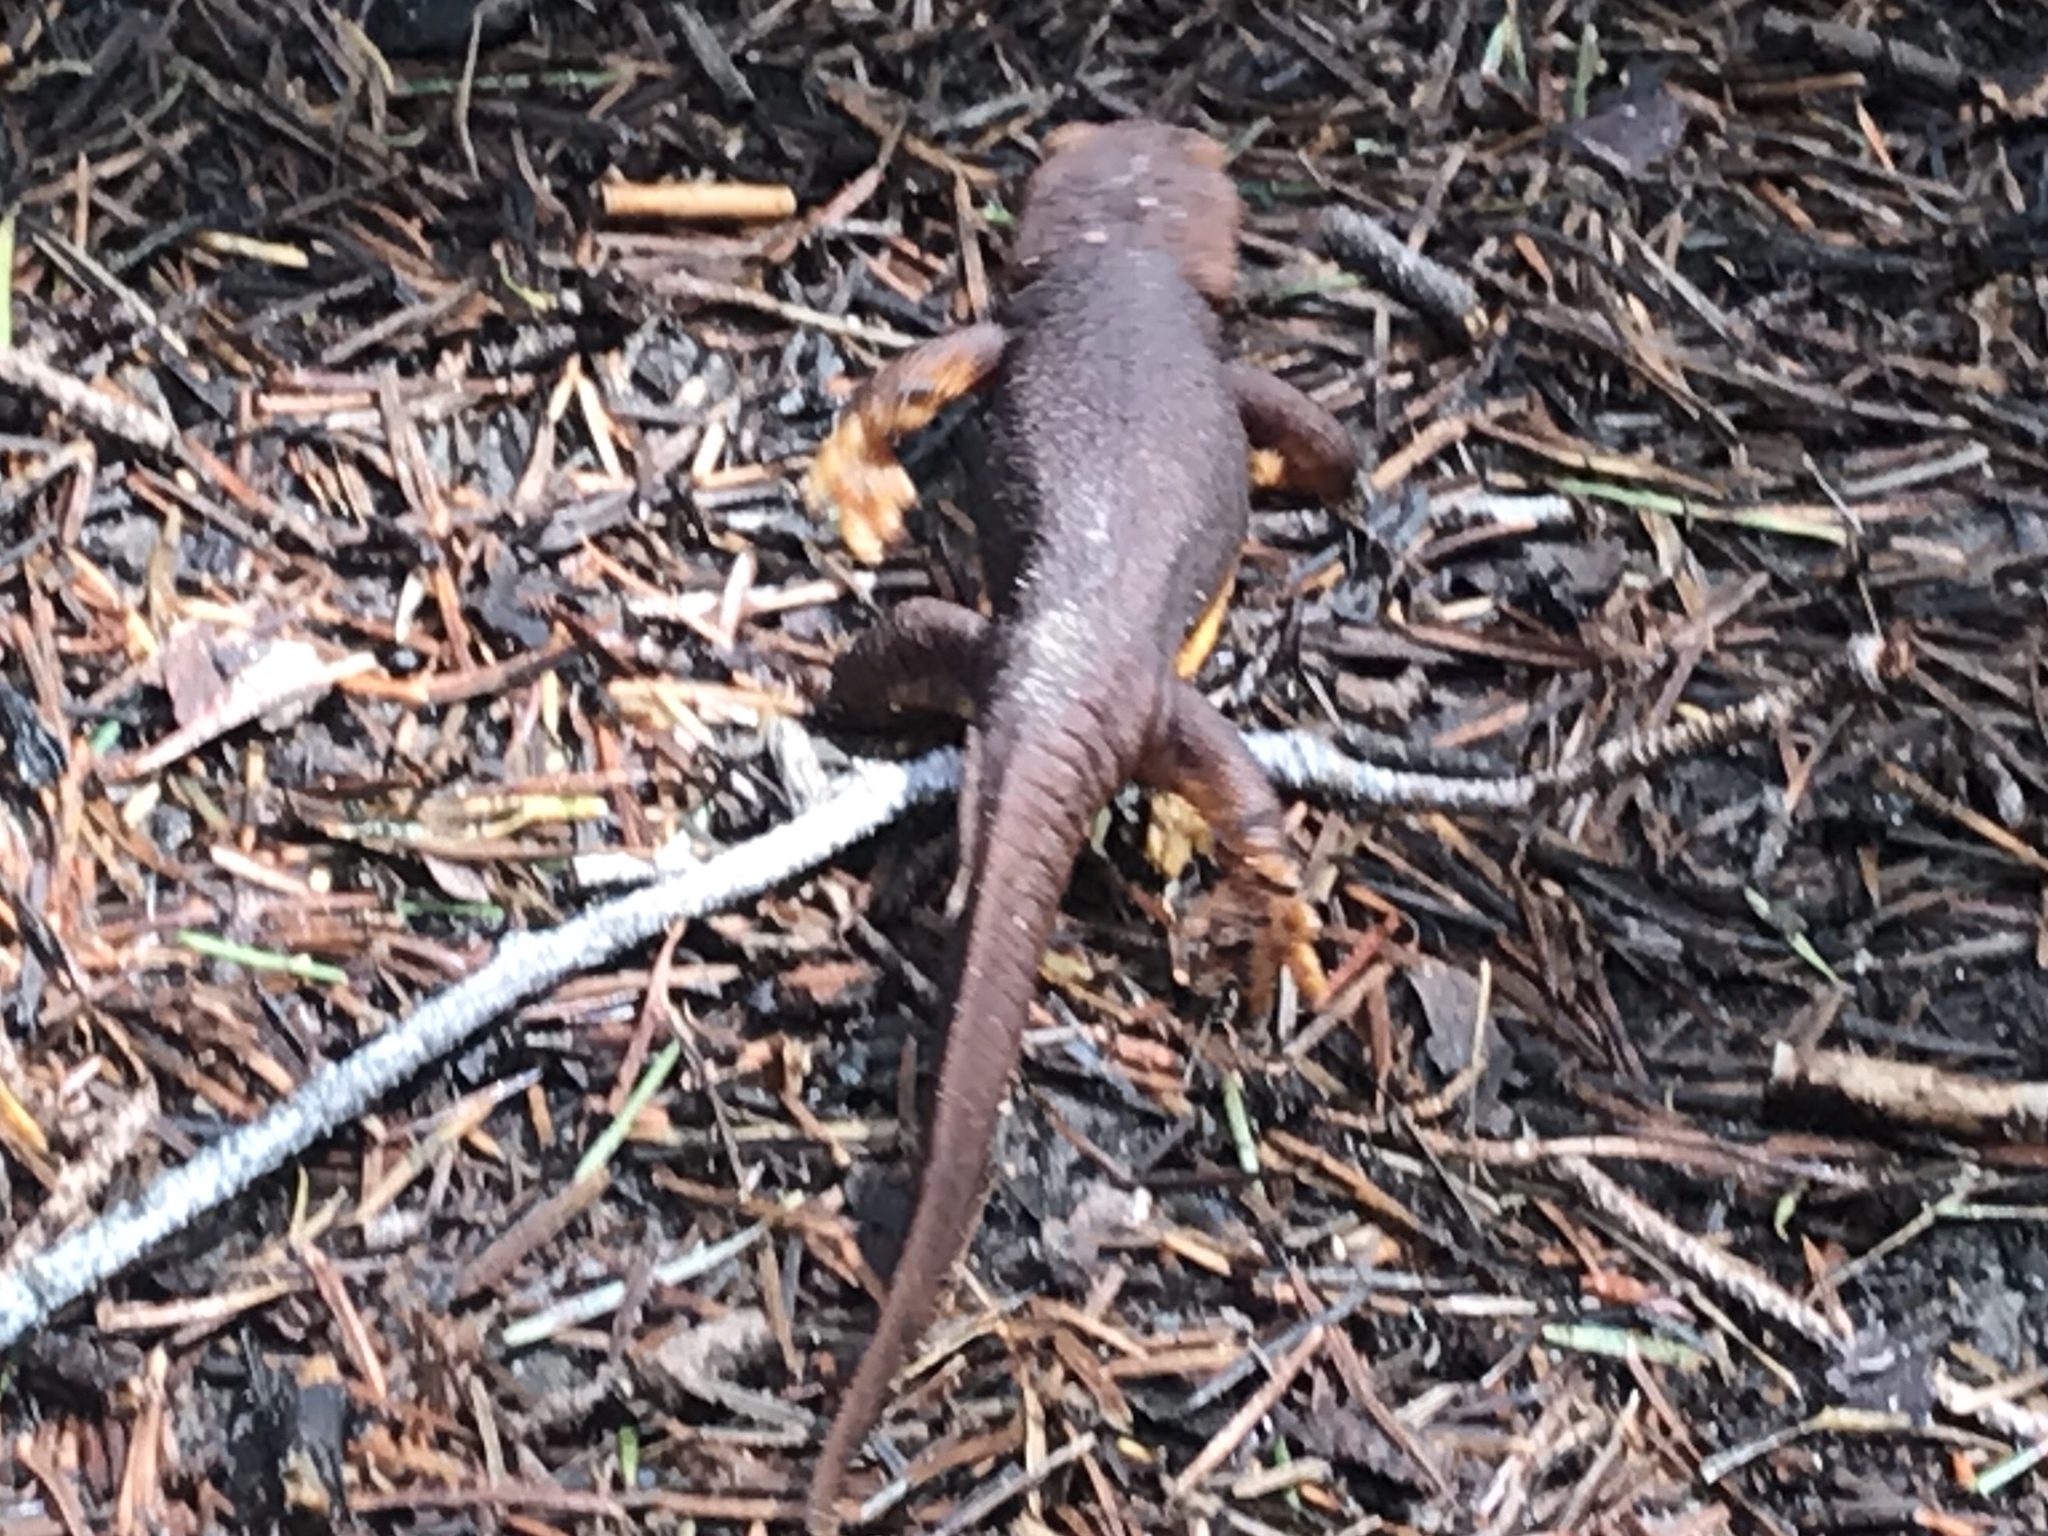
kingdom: Animalia
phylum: Chordata
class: Amphibia
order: Caudata
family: Salamandridae
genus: Taricha
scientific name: Taricha torosa
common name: California newt
